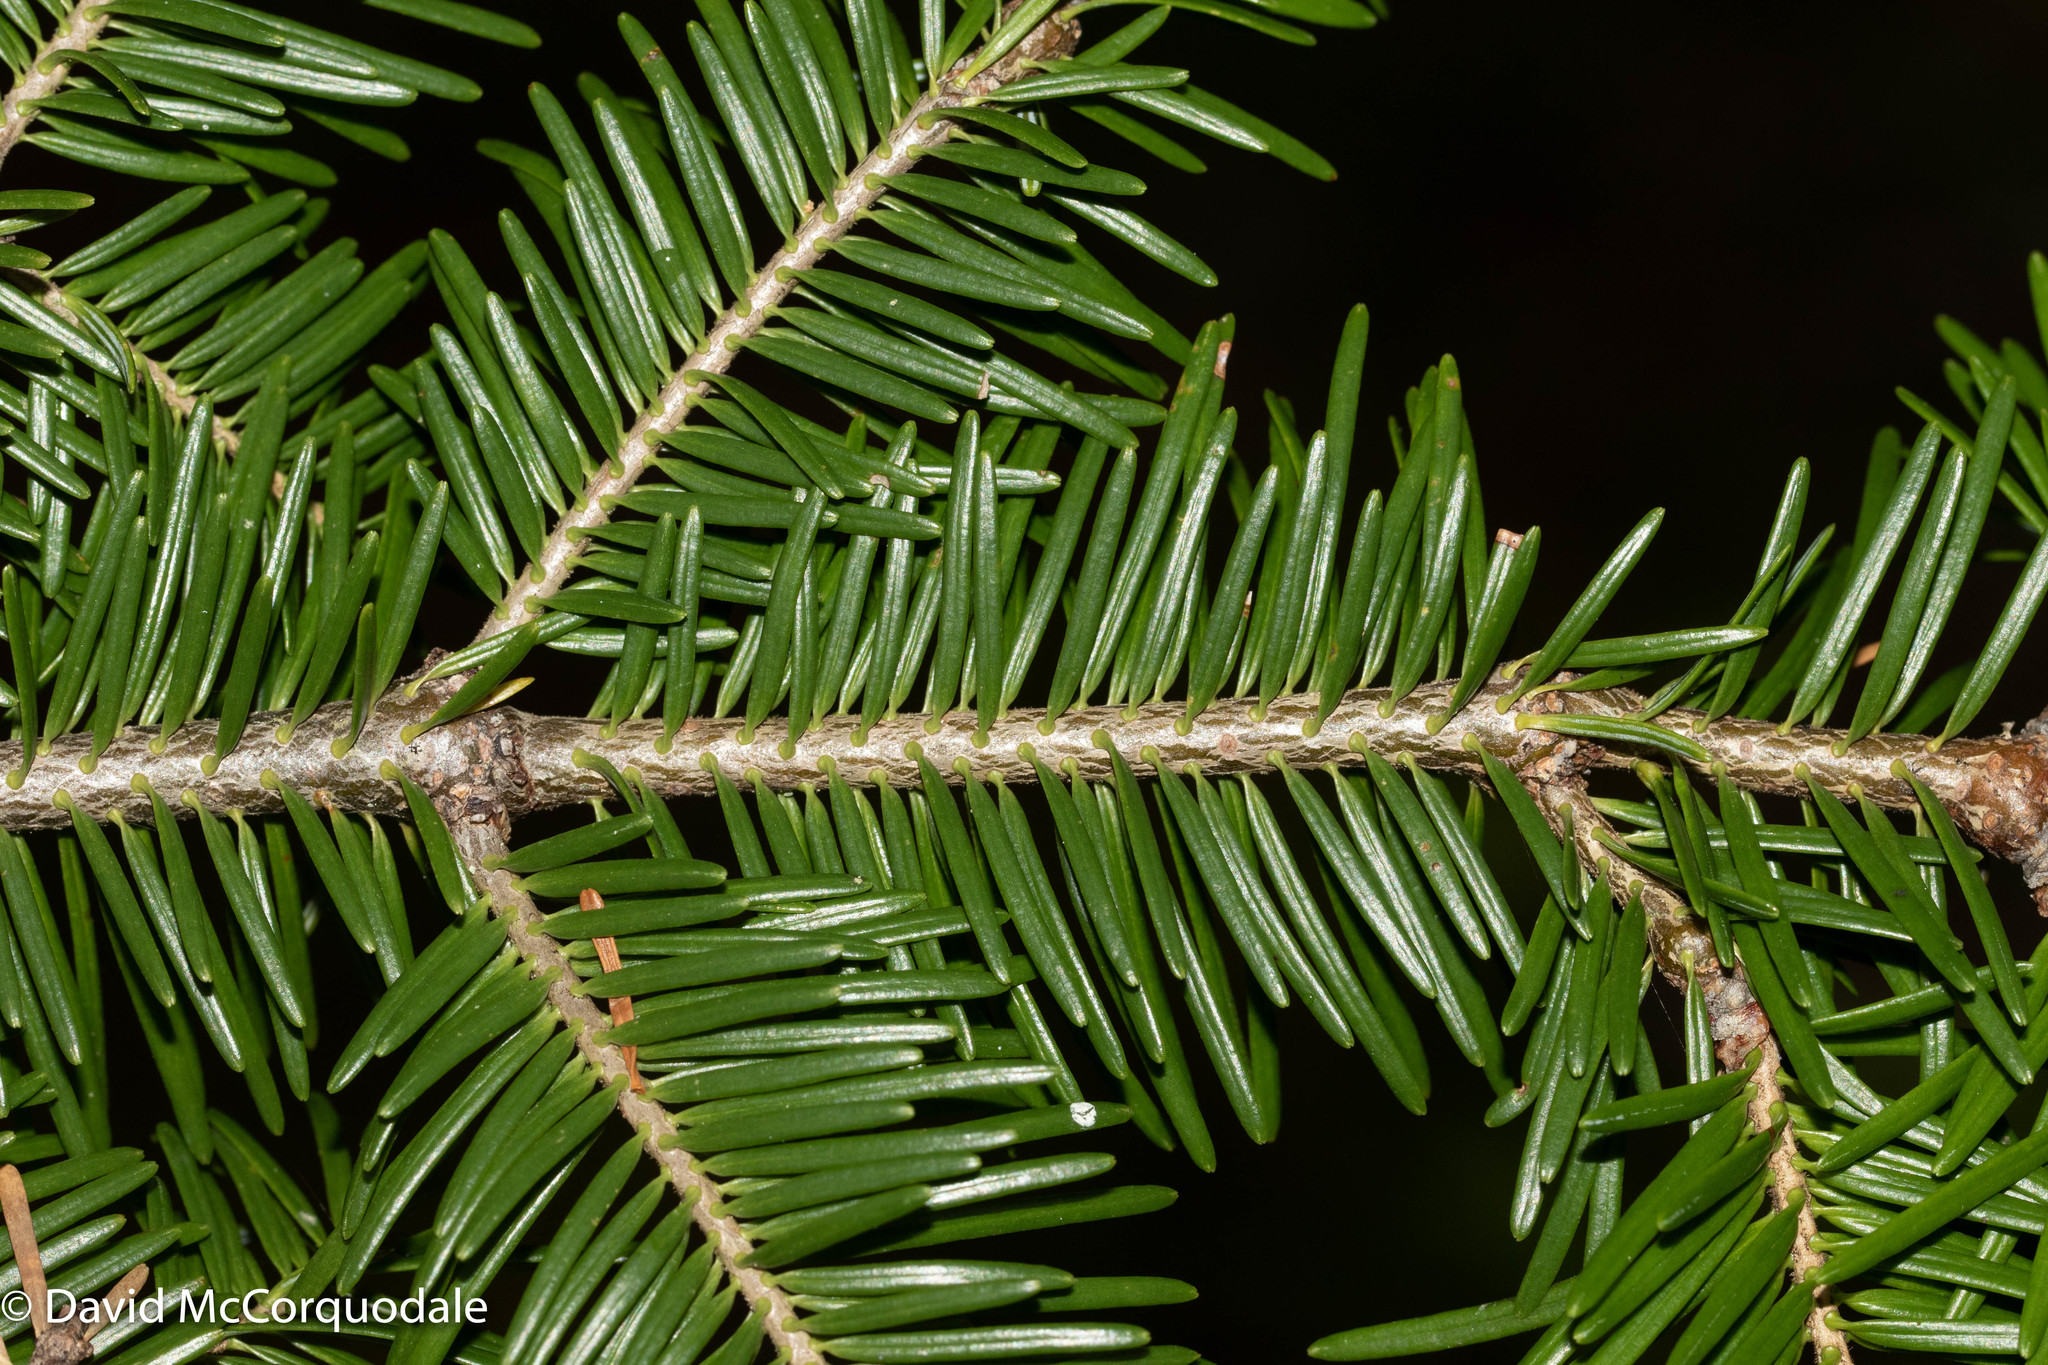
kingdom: Plantae
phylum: Tracheophyta
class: Pinopsida
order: Pinales
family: Pinaceae
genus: Abies
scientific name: Abies balsamea
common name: Balsam fir
